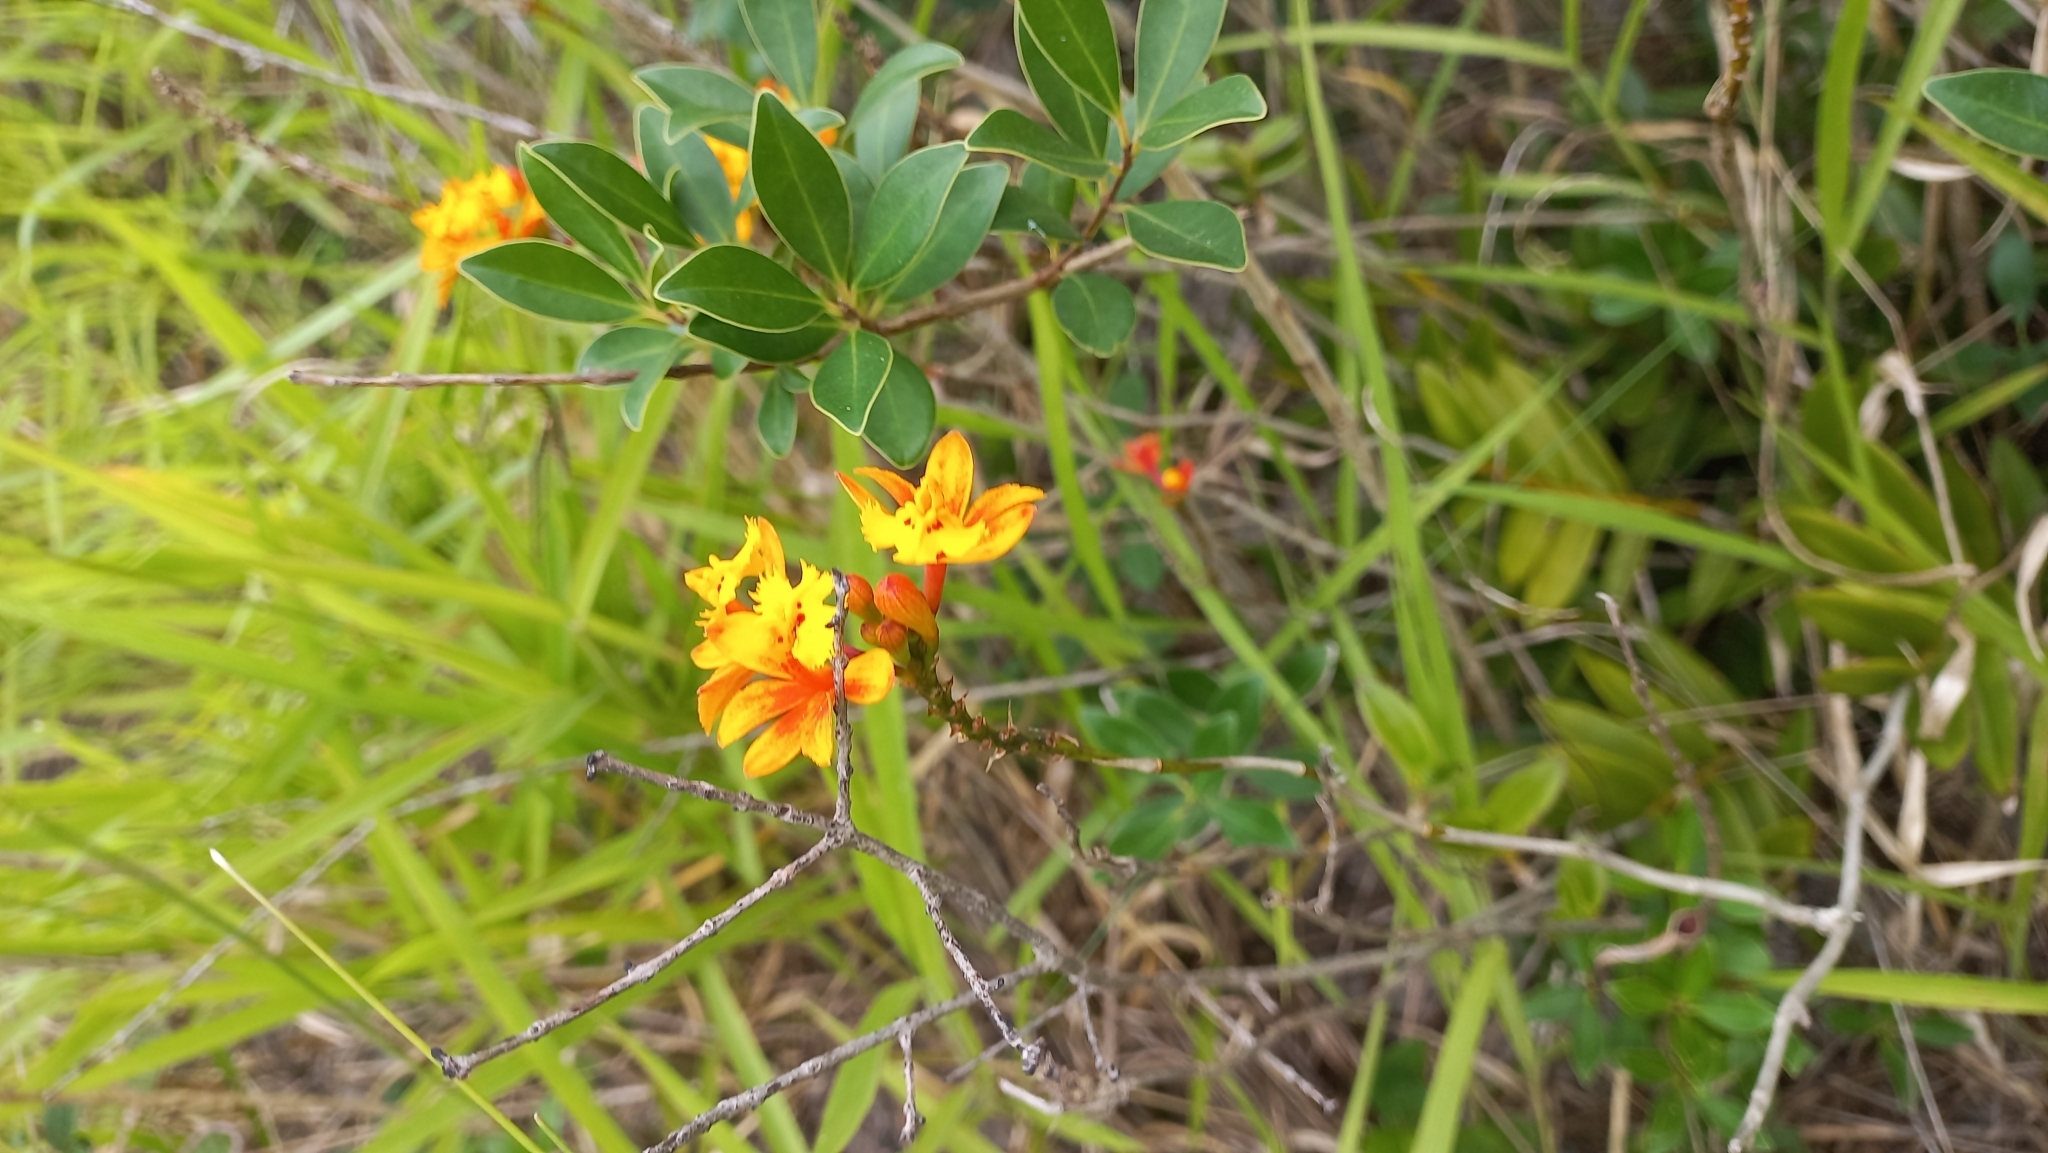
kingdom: Plantae
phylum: Tracheophyta
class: Liliopsida
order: Asparagales
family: Orchidaceae
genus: Epidendrum
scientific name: Epidendrum fulgens
